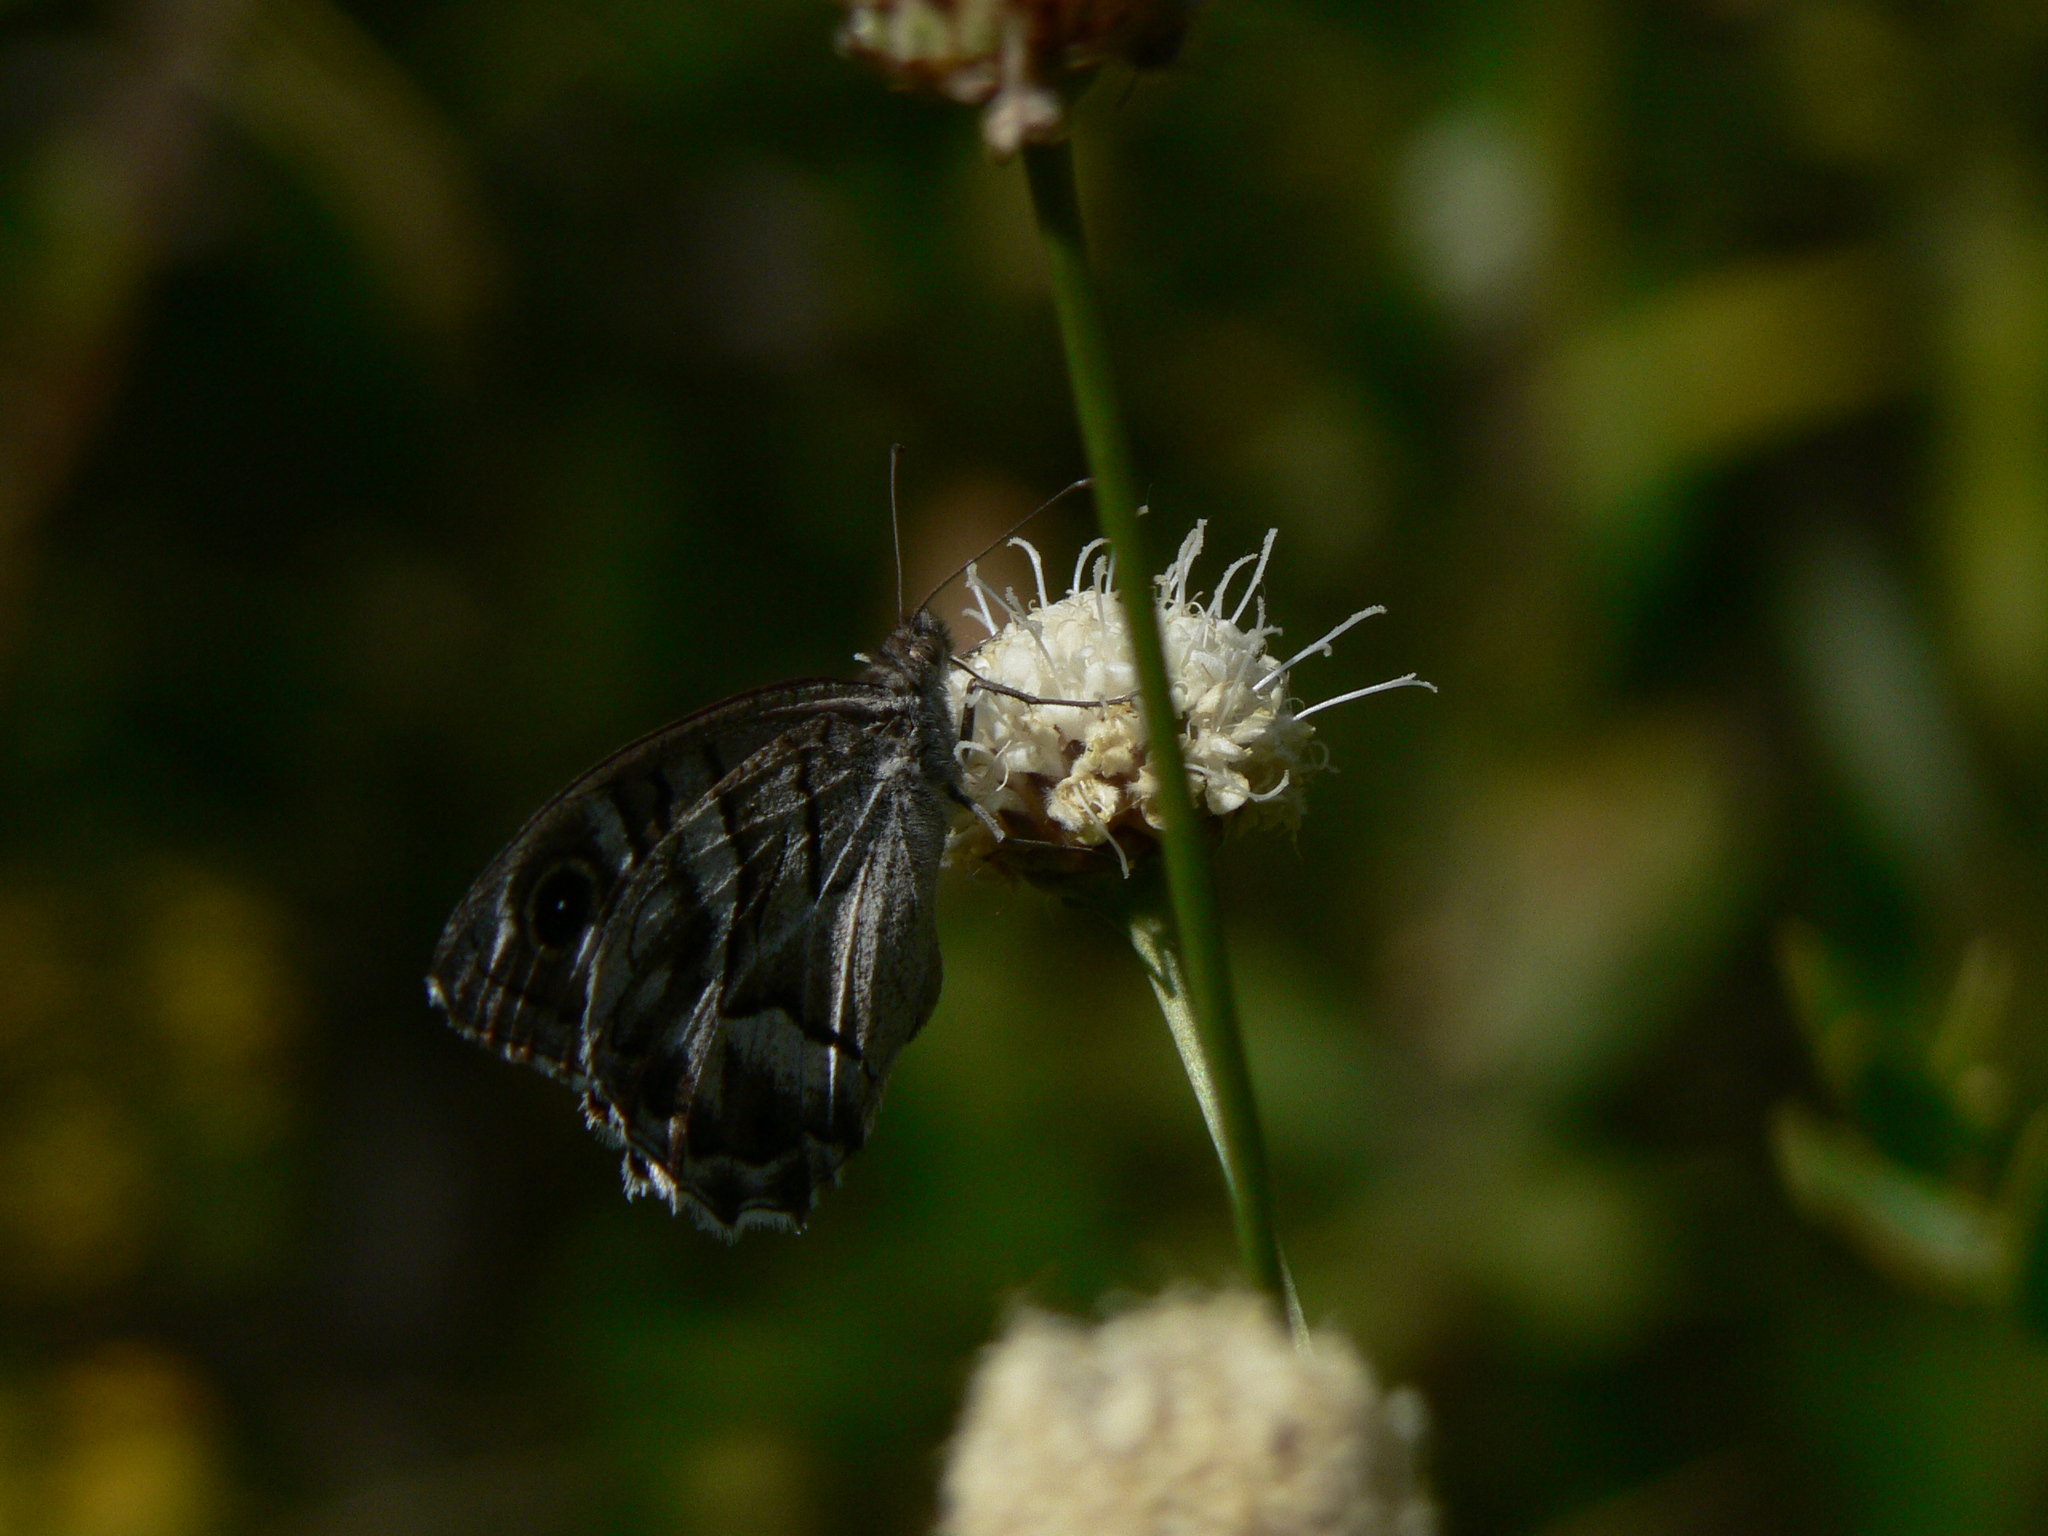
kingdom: Animalia
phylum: Arthropoda
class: Insecta
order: Lepidoptera
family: Nymphalidae
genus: Hipparchia
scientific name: Hipparchia fidia
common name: Striped grayling
